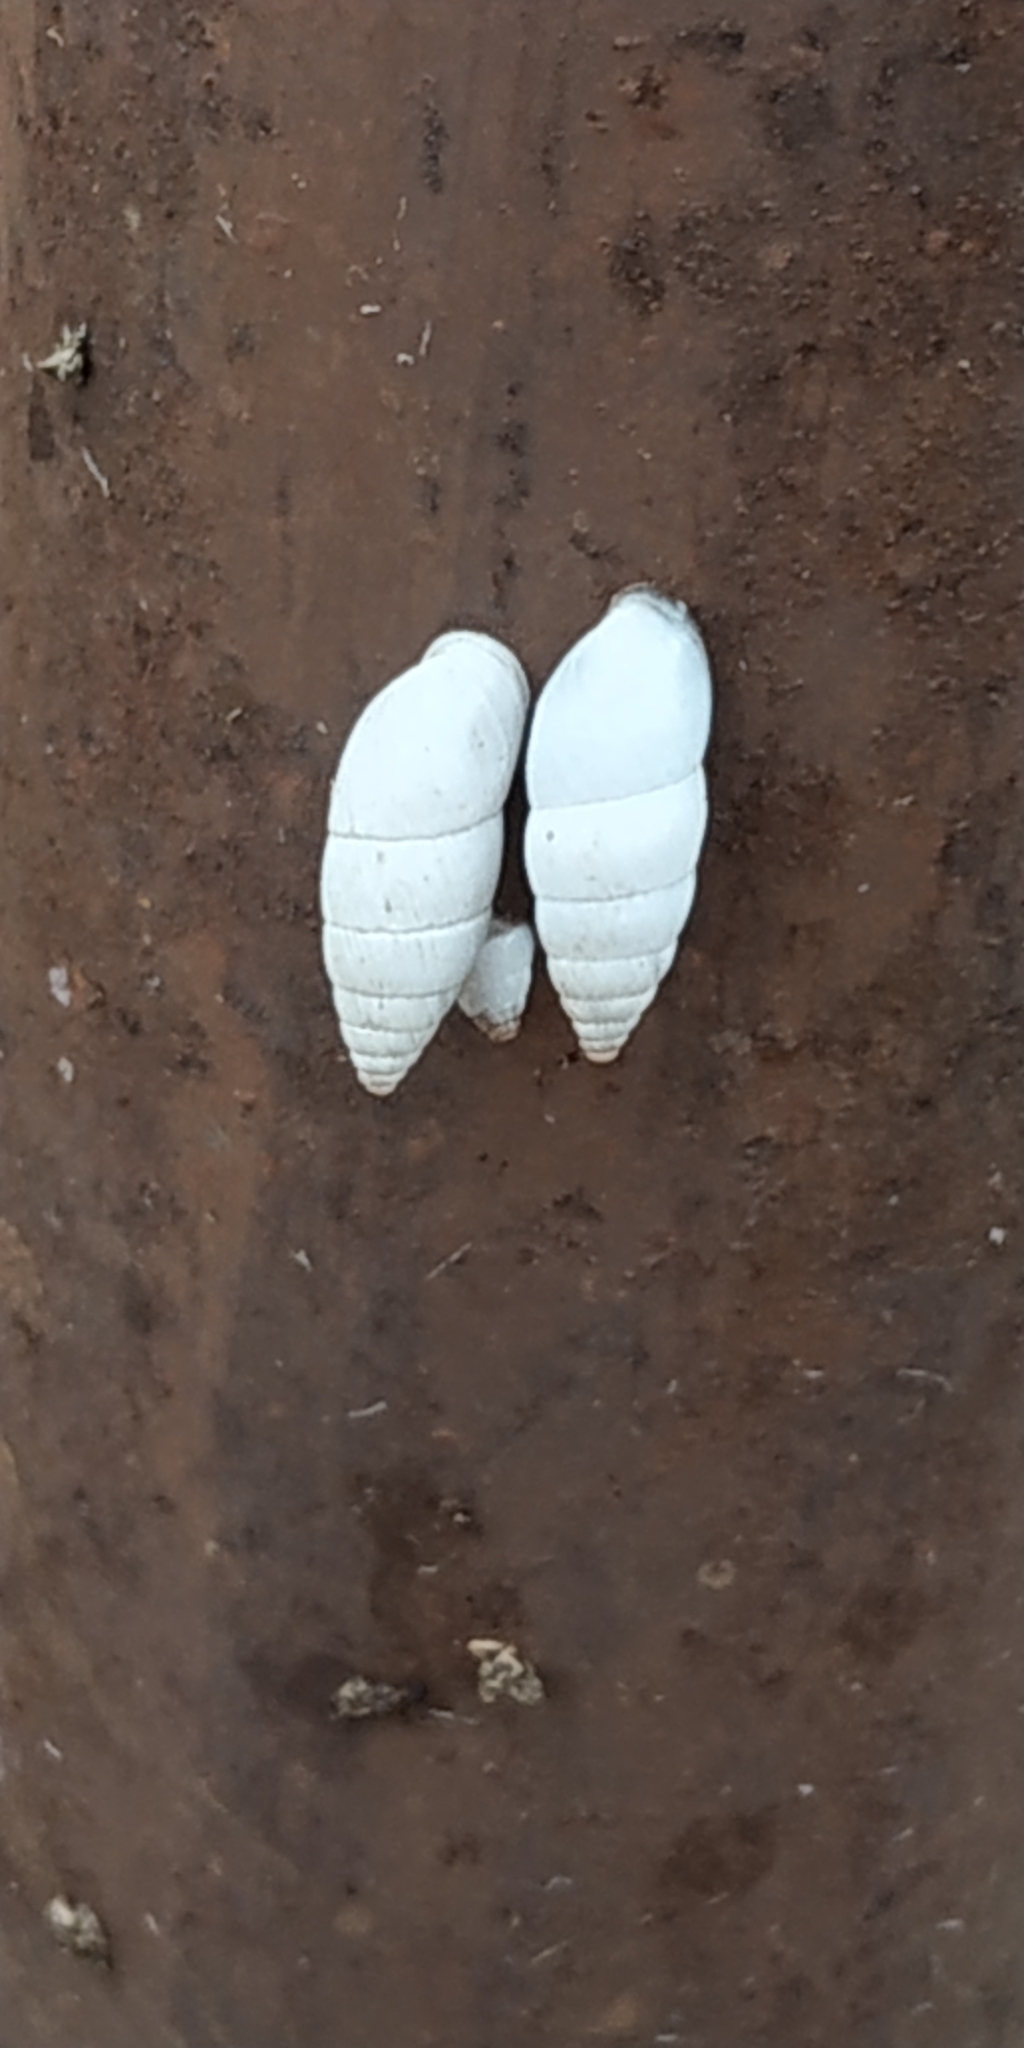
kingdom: Animalia
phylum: Mollusca
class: Gastropoda
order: Stylommatophora
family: Enidae
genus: Brephulopsis
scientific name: Brephulopsis cylindrica
